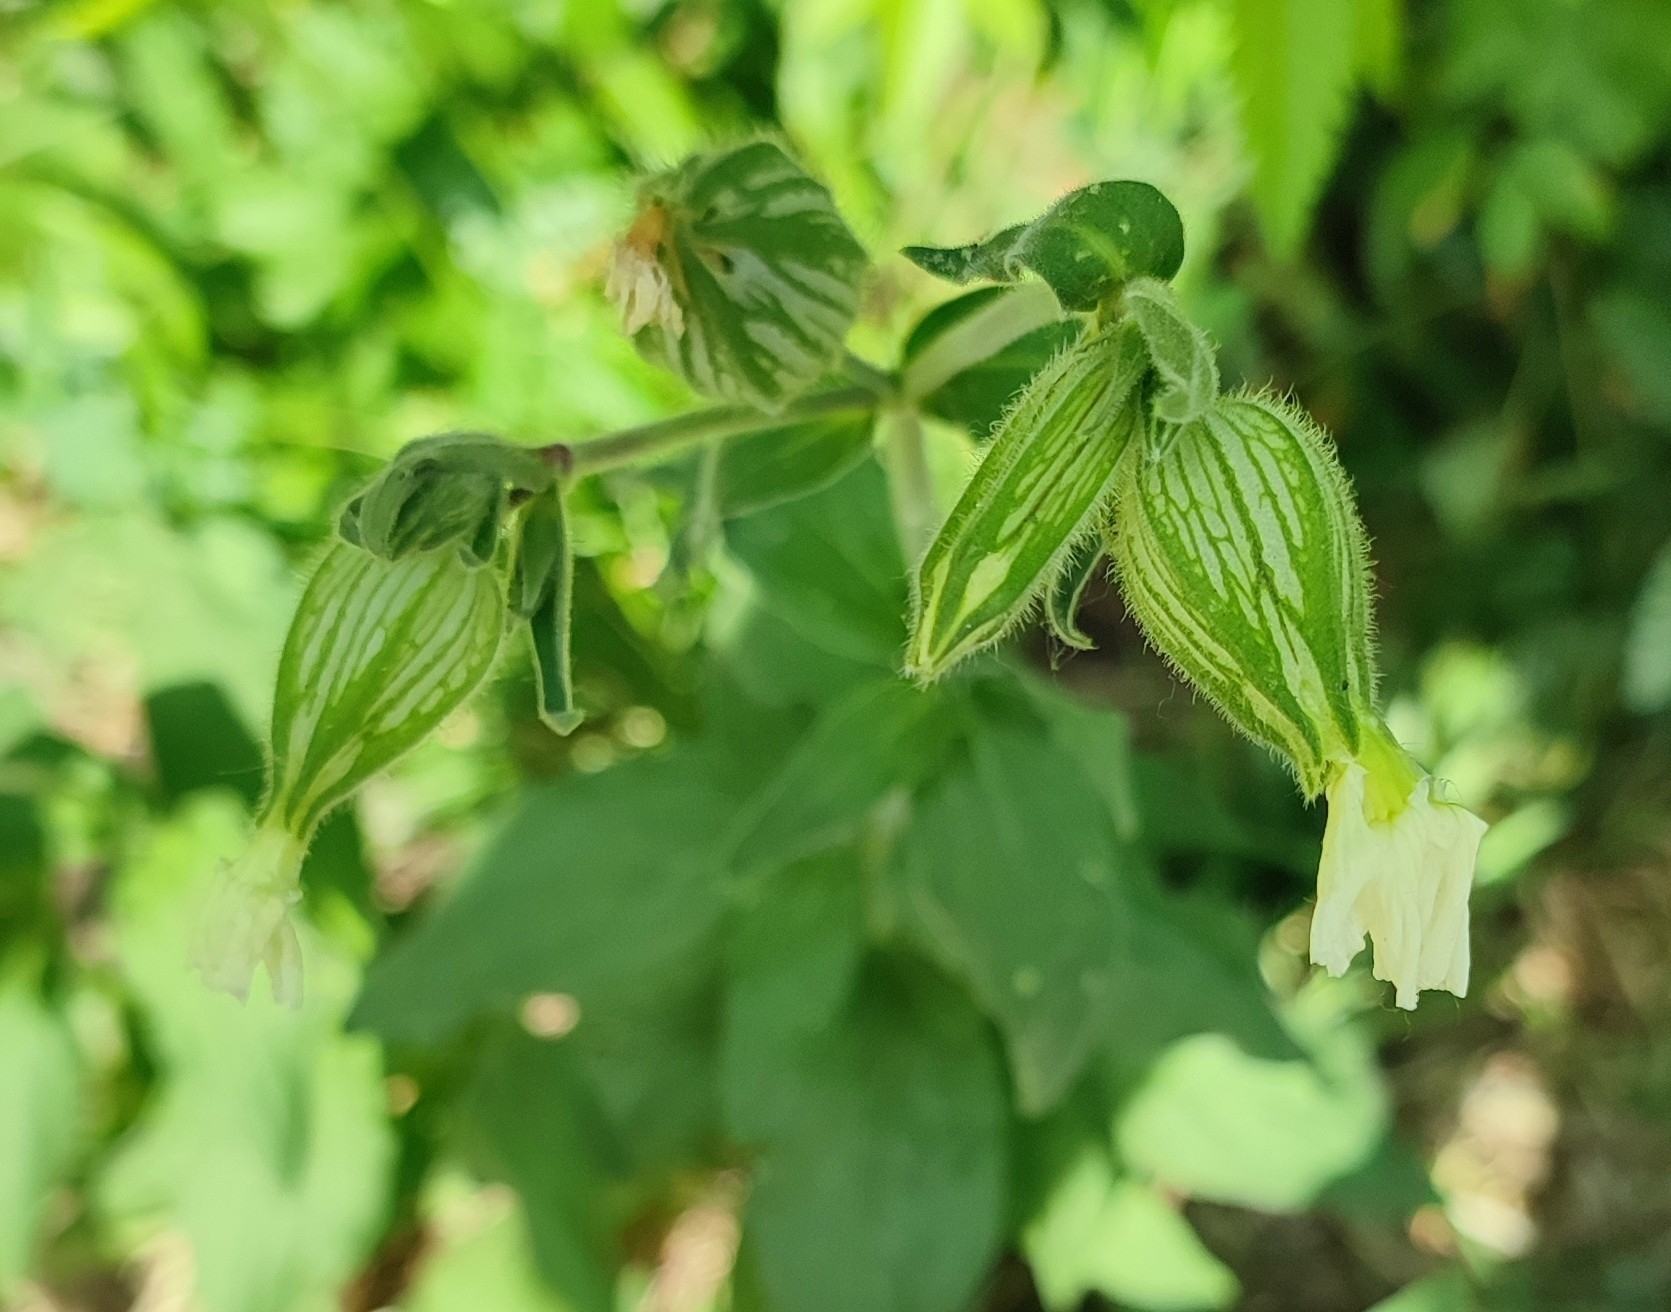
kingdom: Plantae
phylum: Tracheophyta
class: Magnoliopsida
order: Caryophyllales
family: Caryophyllaceae
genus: Silene
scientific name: Silene latifolia
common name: White campion
